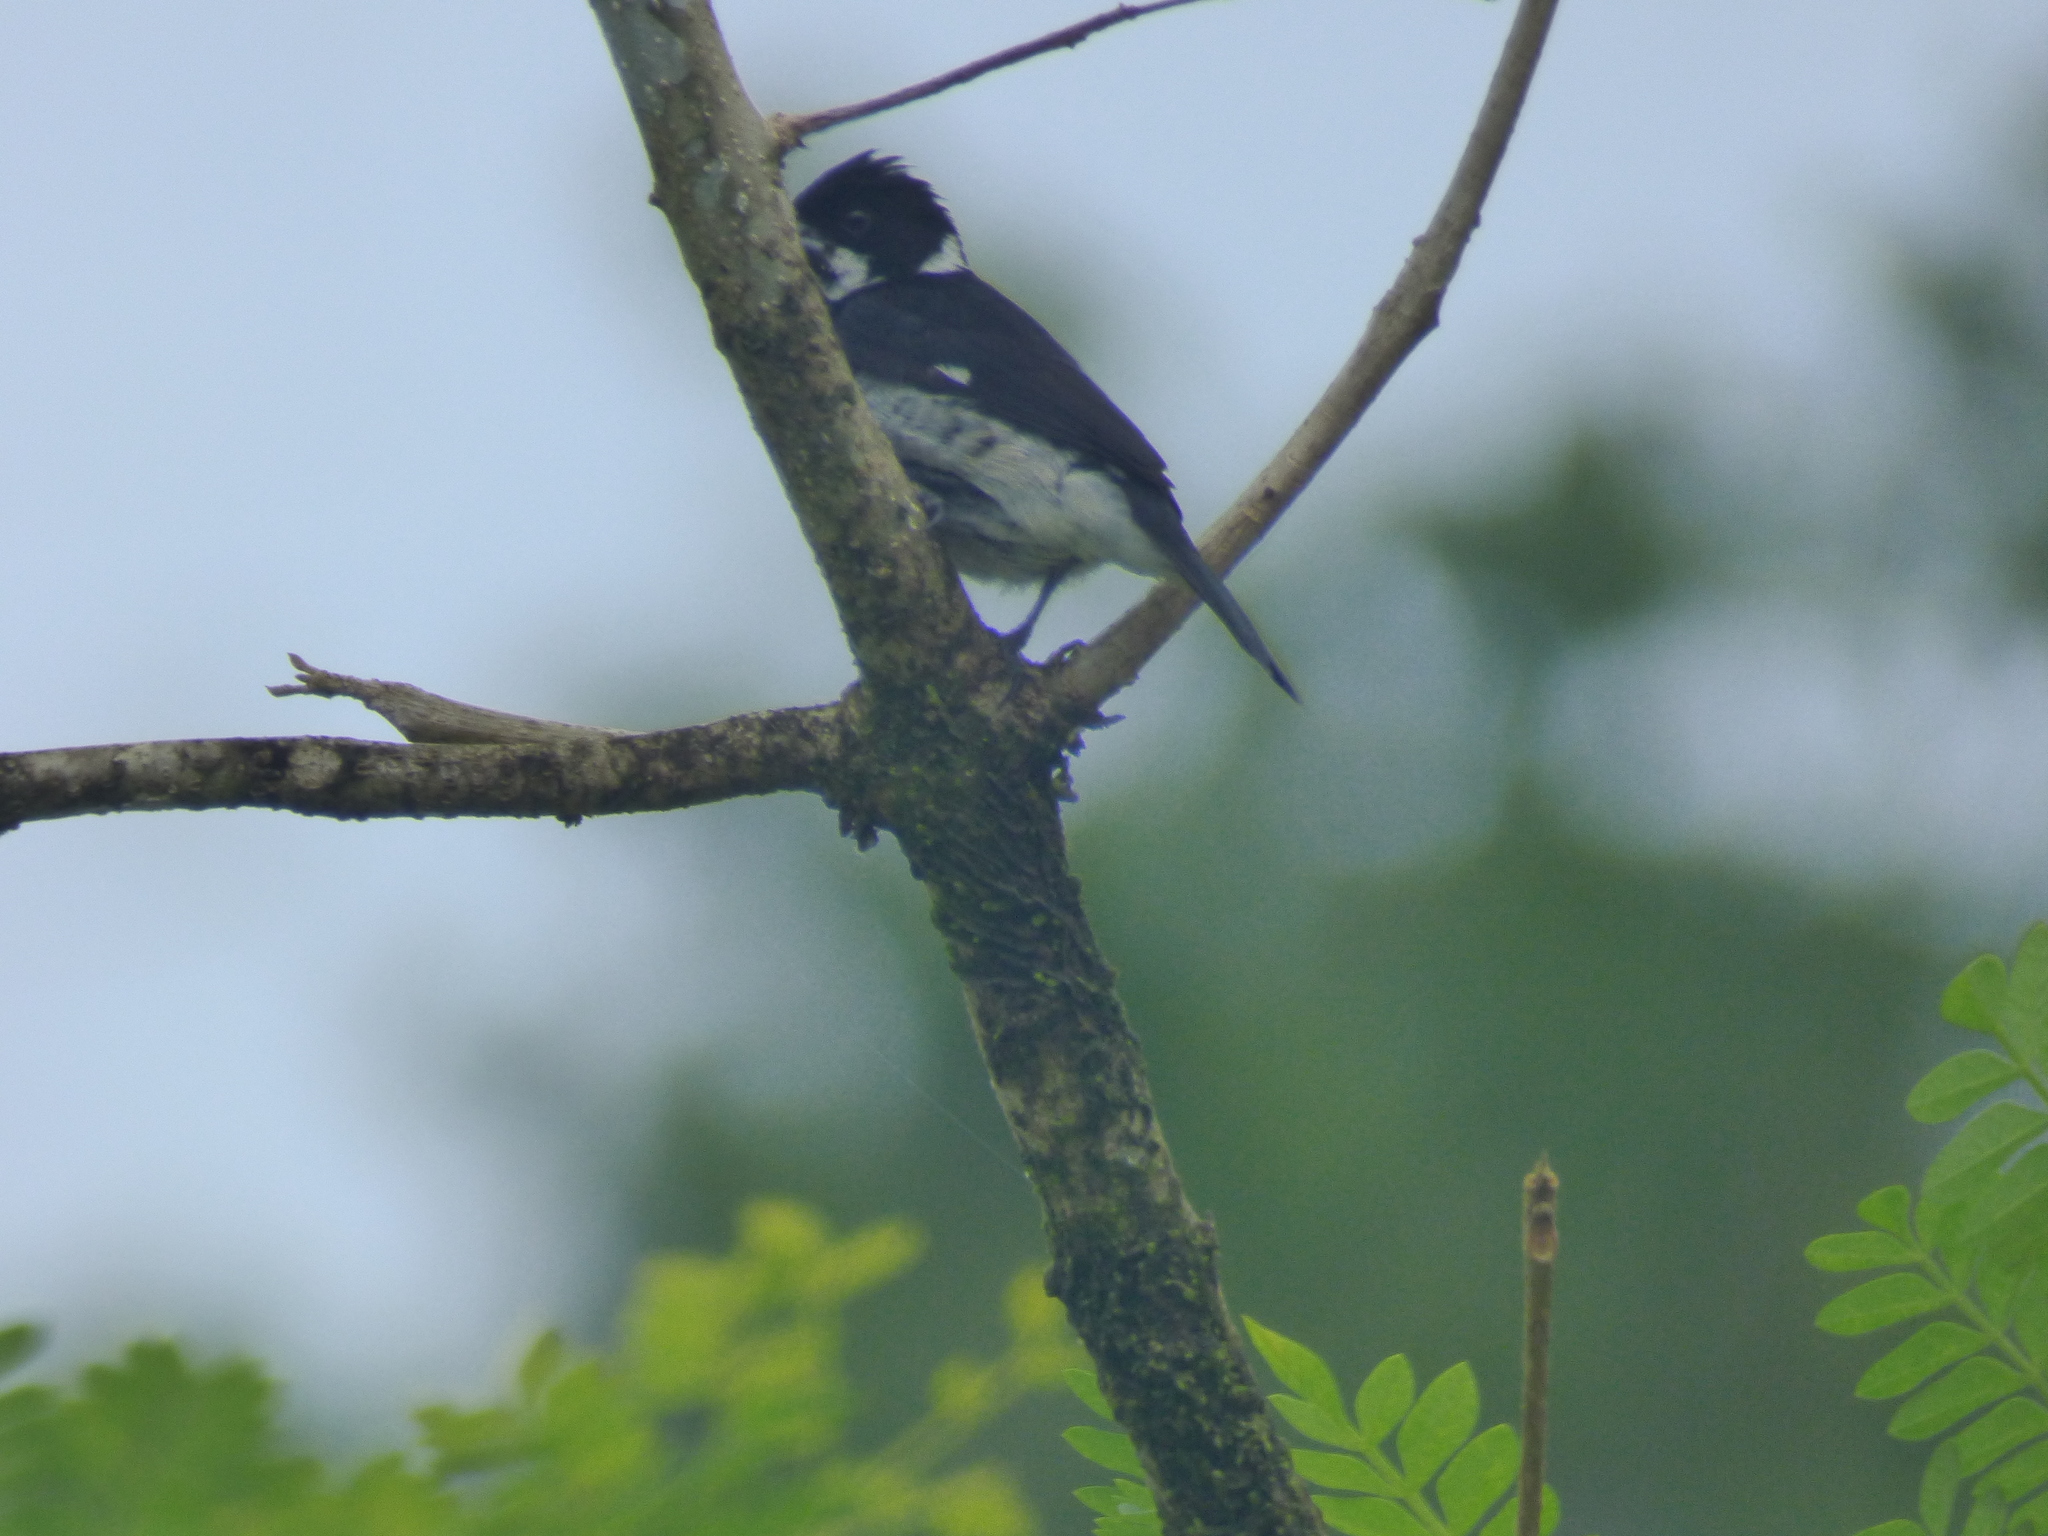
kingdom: Animalia
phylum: Chordata
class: Aves
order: Passeriformes
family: Thraupidae
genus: Sporophila
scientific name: Sporophila corvina
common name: Variable seedeater
